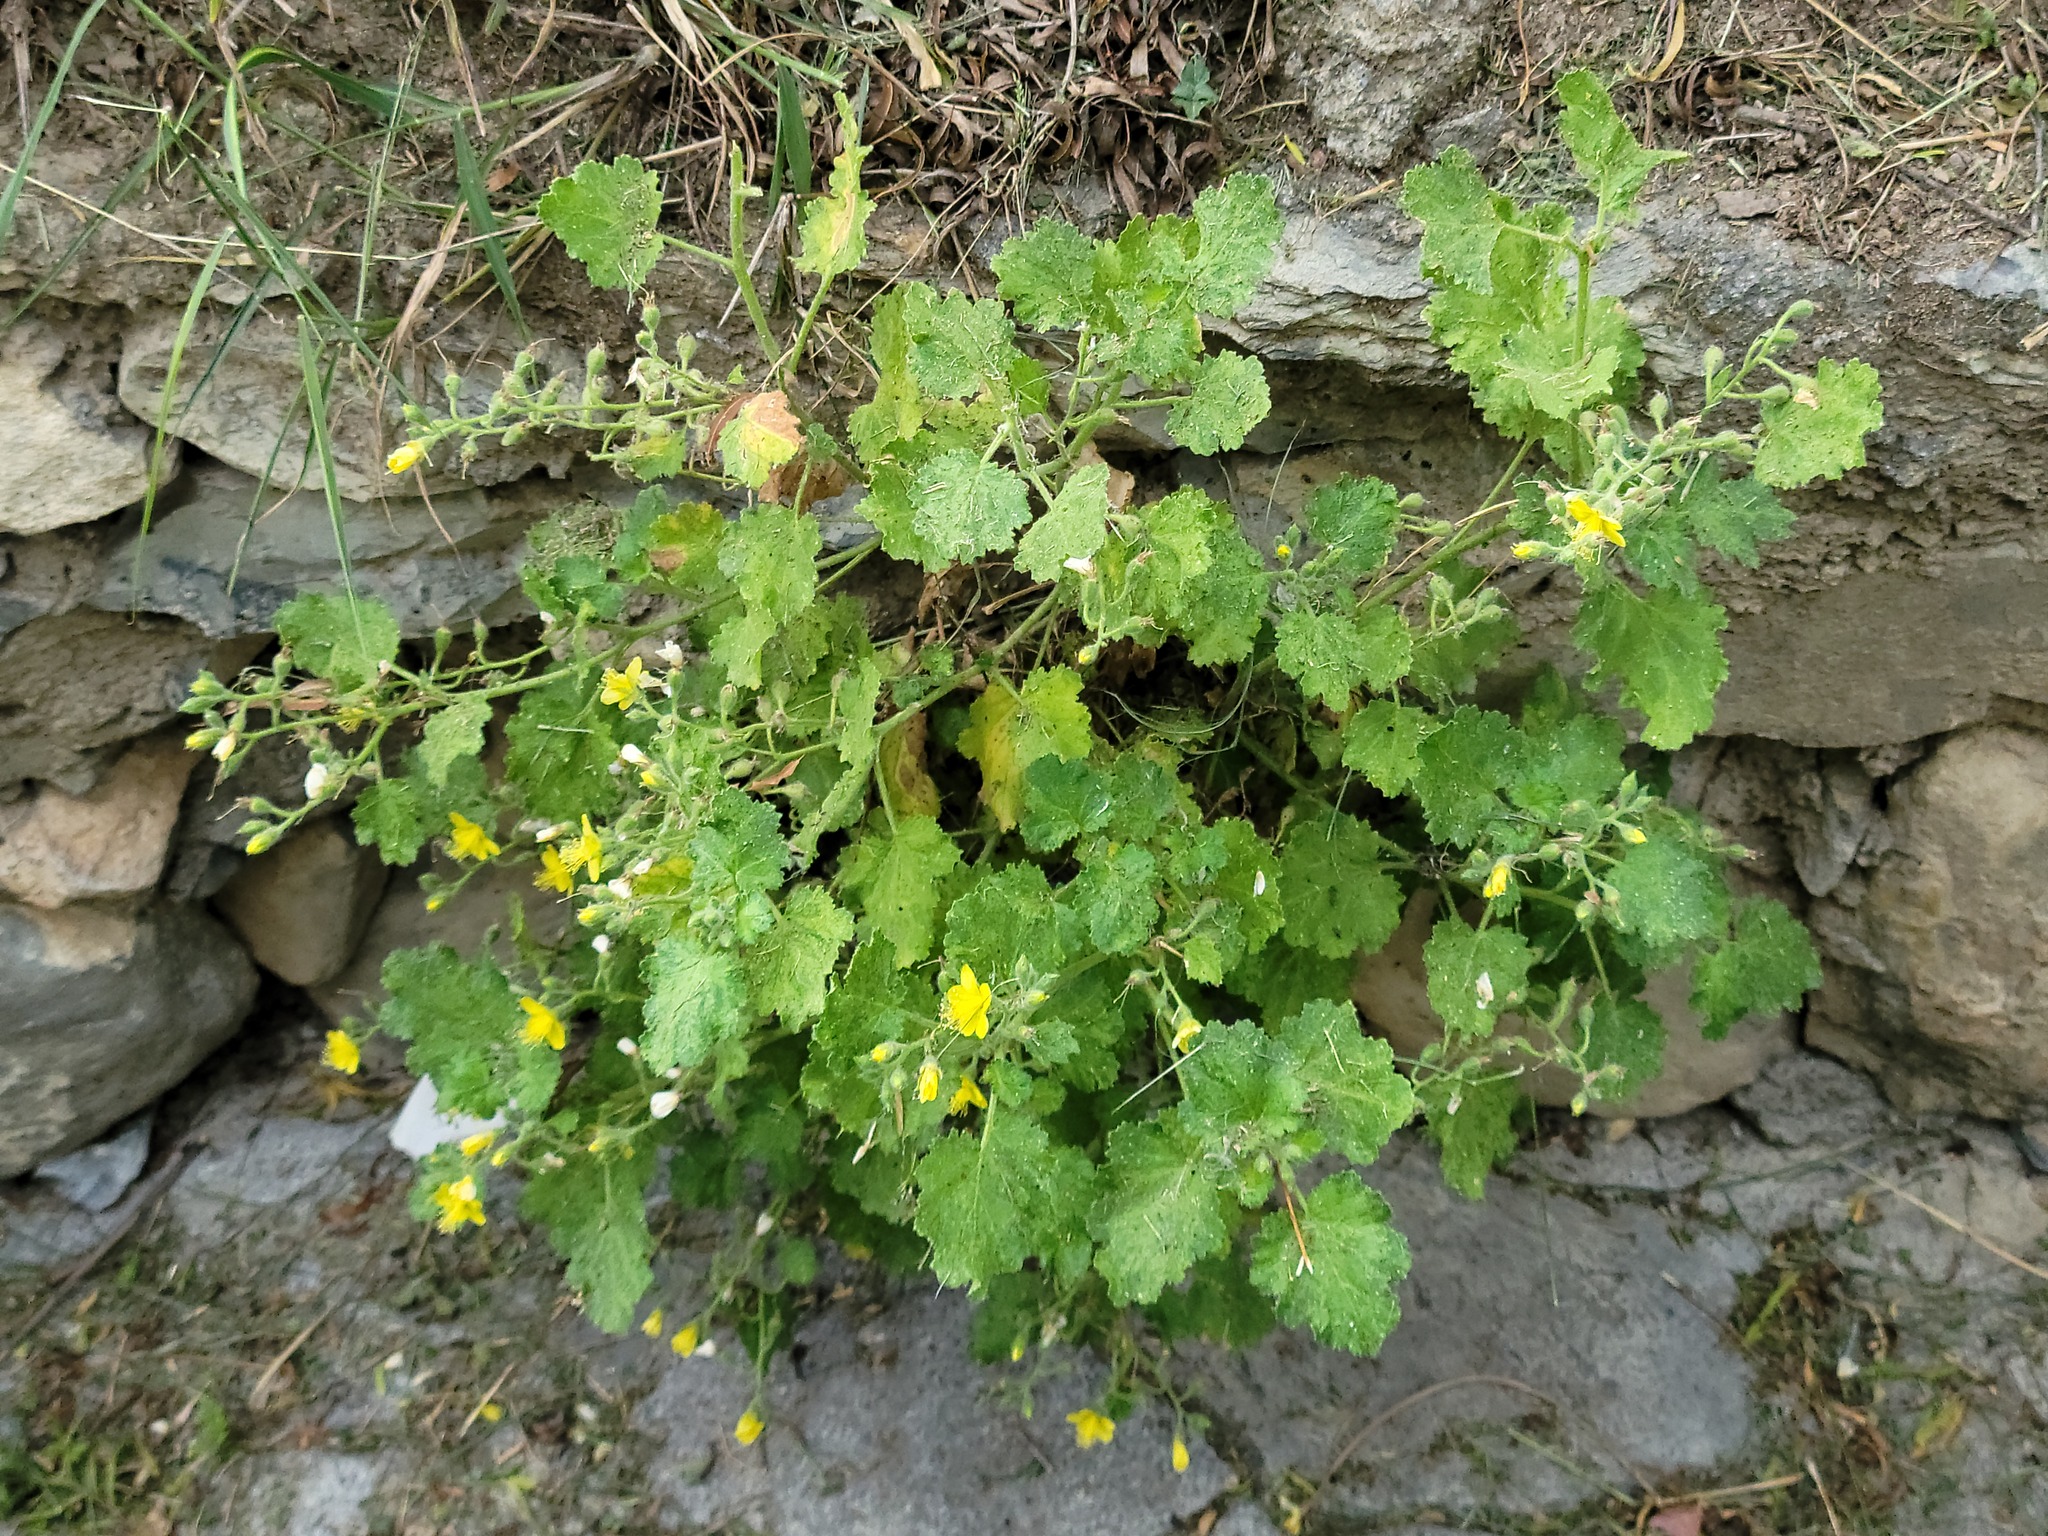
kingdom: Plantae
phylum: Tracheophyta
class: Magnoliopsida
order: Cornales
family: Loasaceae
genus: Eucnide
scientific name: Eucnide lobata
